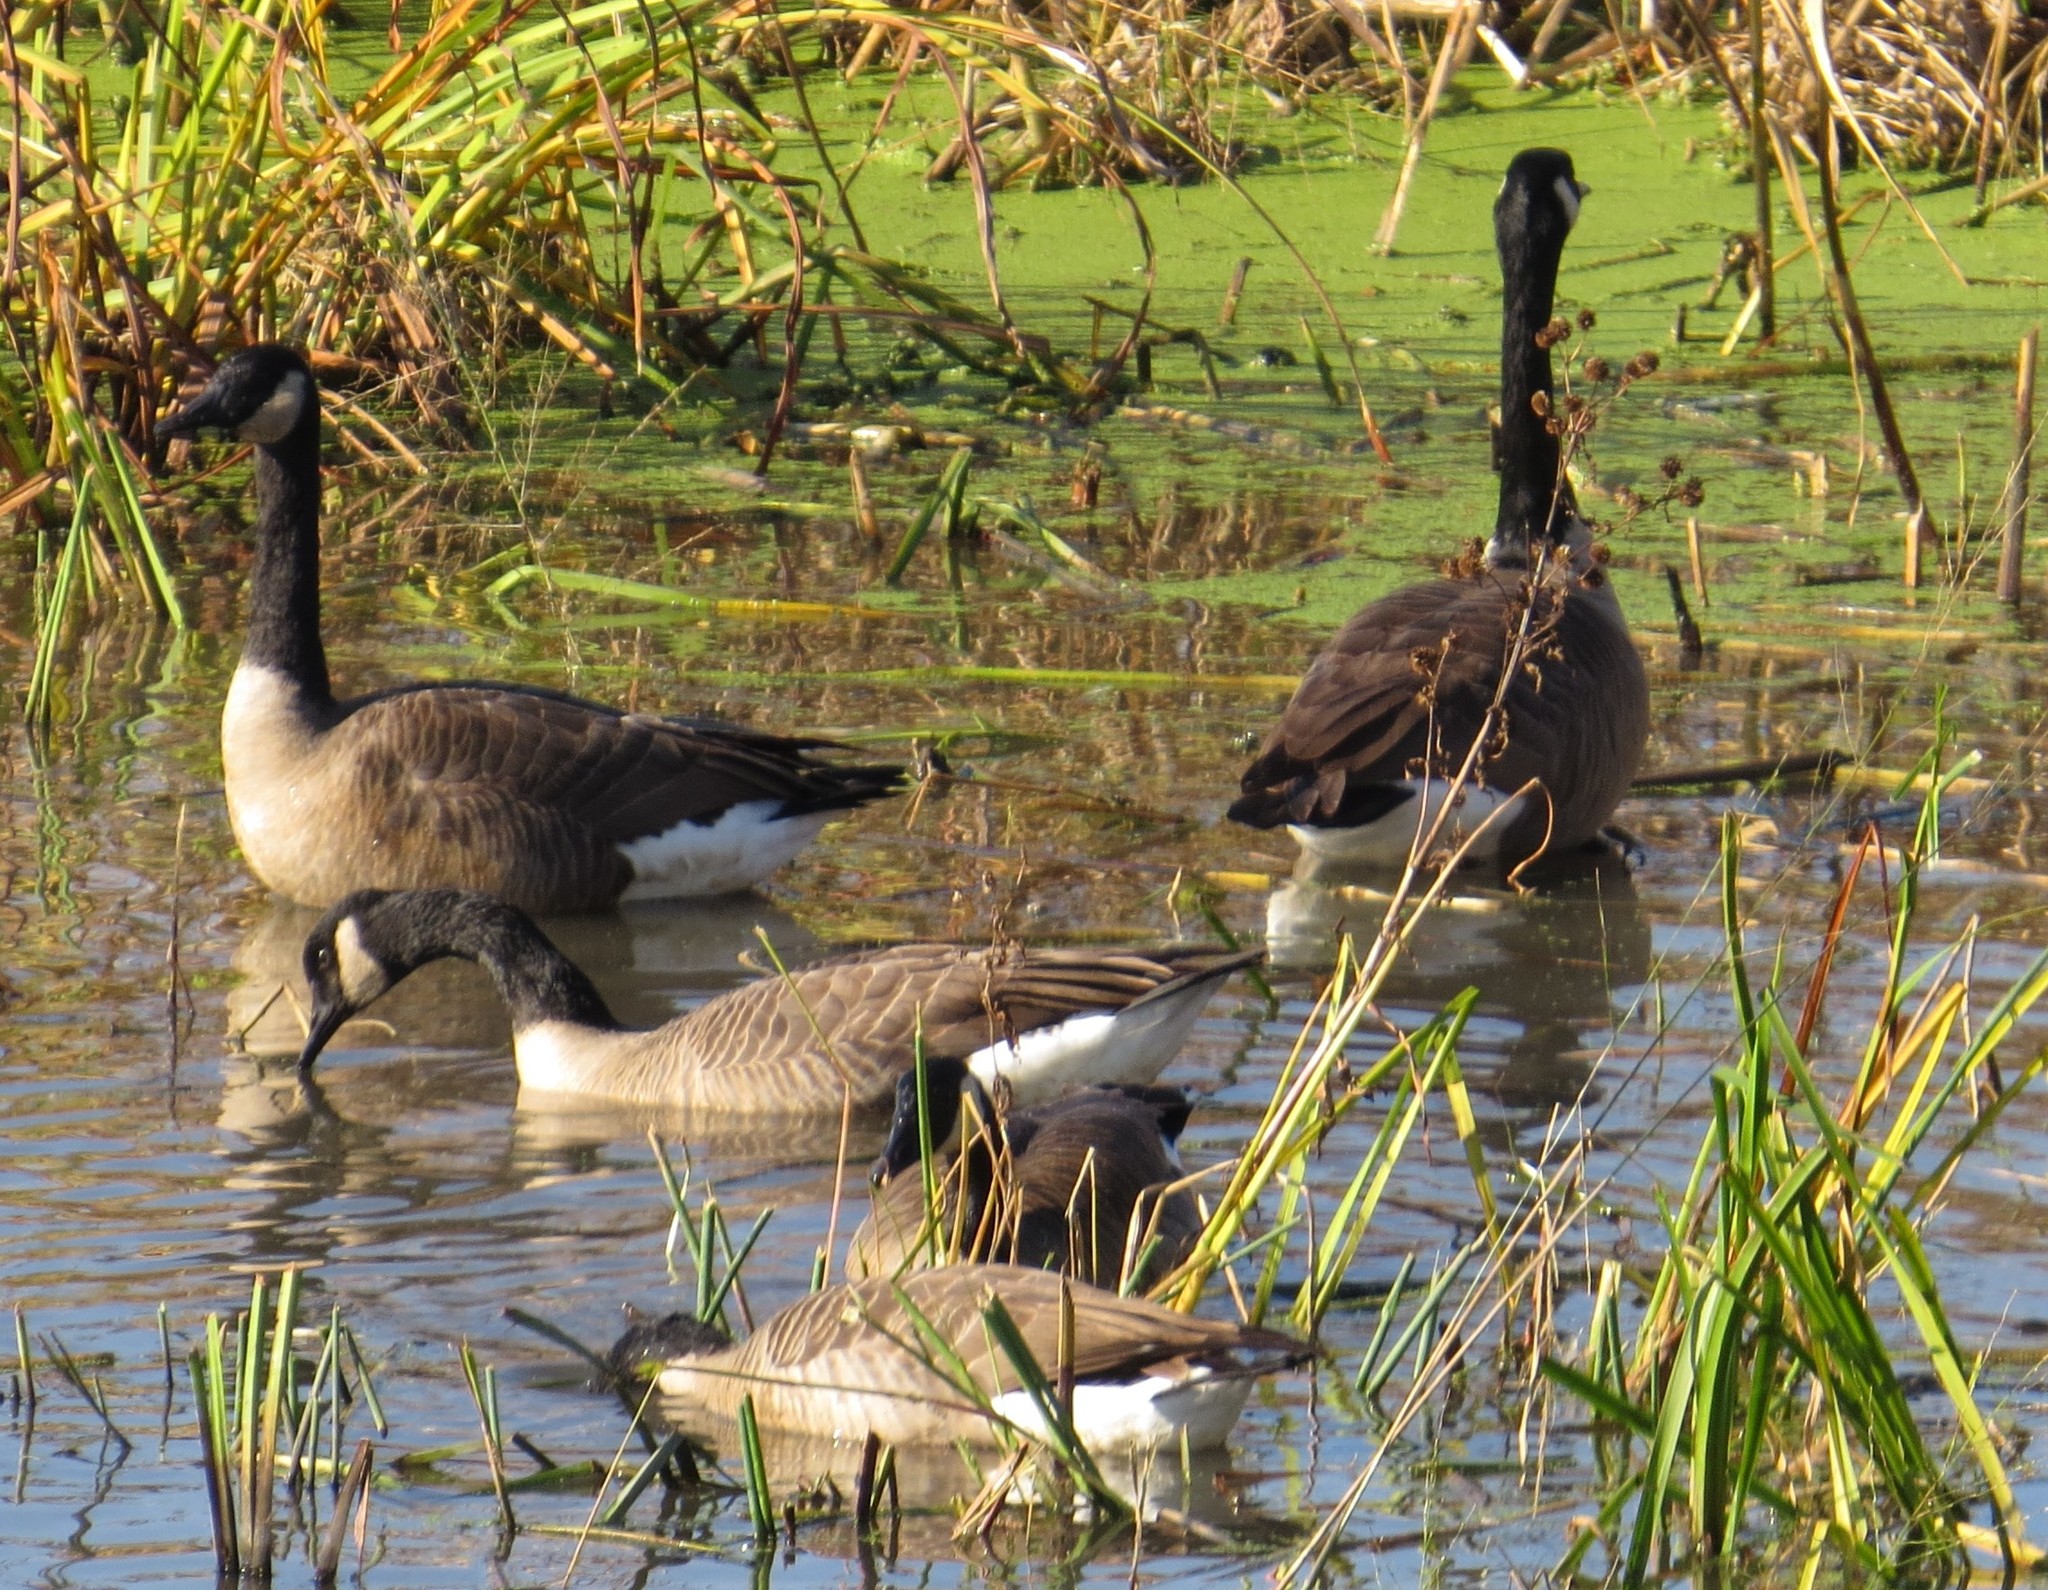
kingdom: Animalia
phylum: Chordata
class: Aves
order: Anseriformes
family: Anatidae
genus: Branta
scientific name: Branta canadensis
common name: Canada goose
